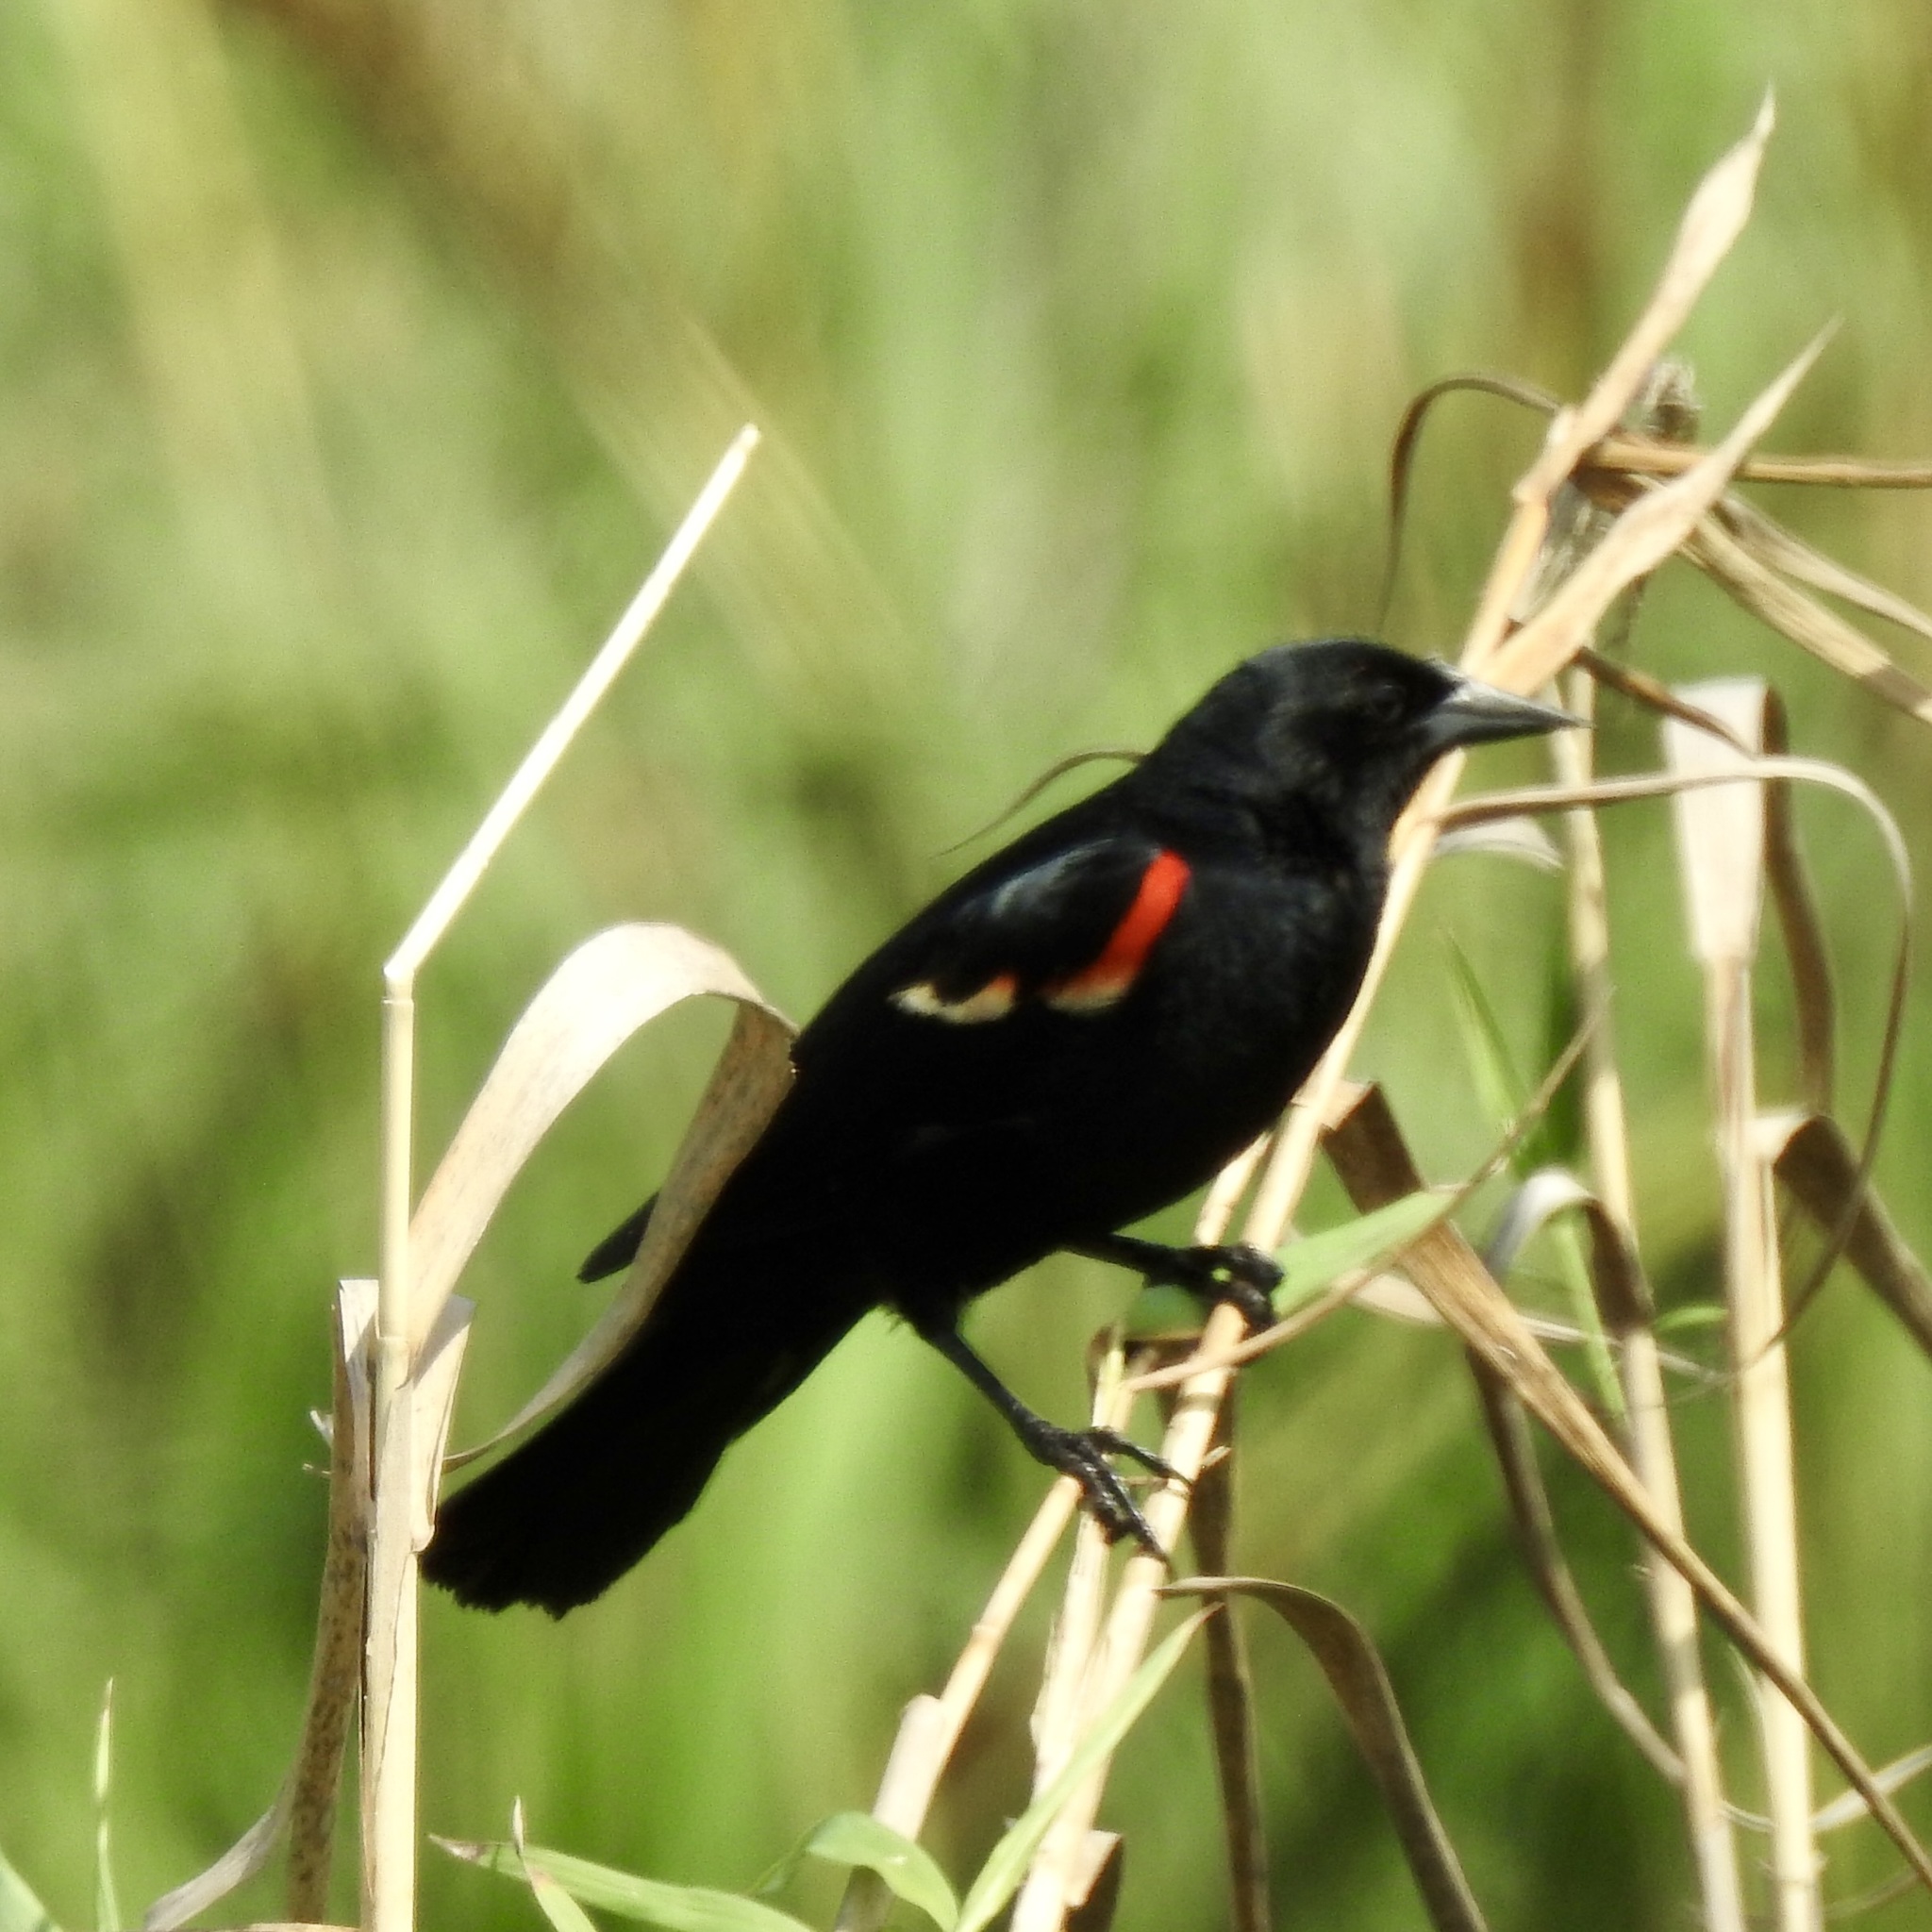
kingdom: Animalia
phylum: Chordata
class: Aves
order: Passeriformes
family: Icteridae
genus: Agelaius
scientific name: Agelaius phoeniceus
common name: Red-winged blackbird
